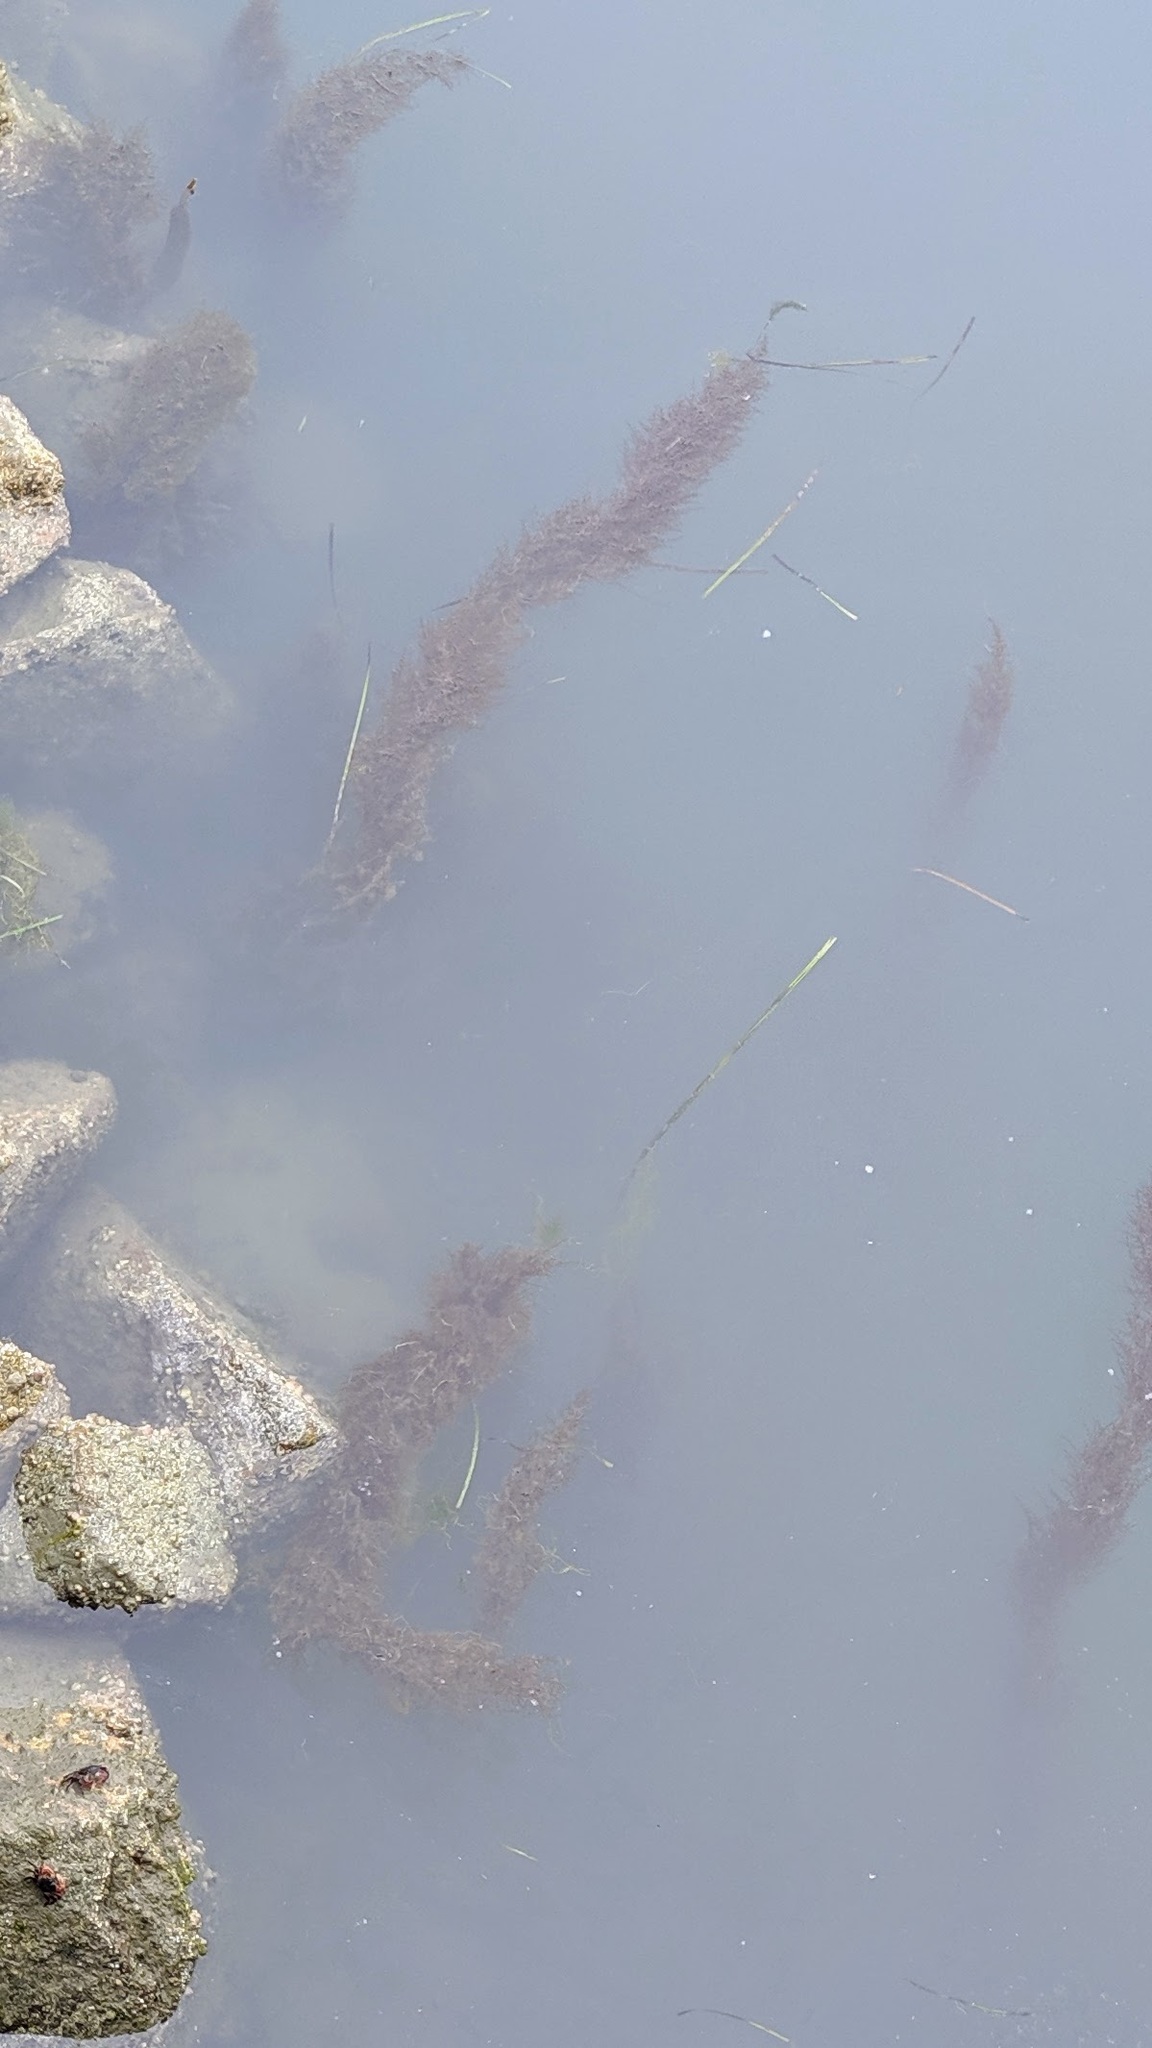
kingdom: Chromista
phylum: Ochrophyta
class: Phaeophyceae
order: Fucales
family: Sargassaceae
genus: Sargassum
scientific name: Sargassum muticum
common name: Japweed
